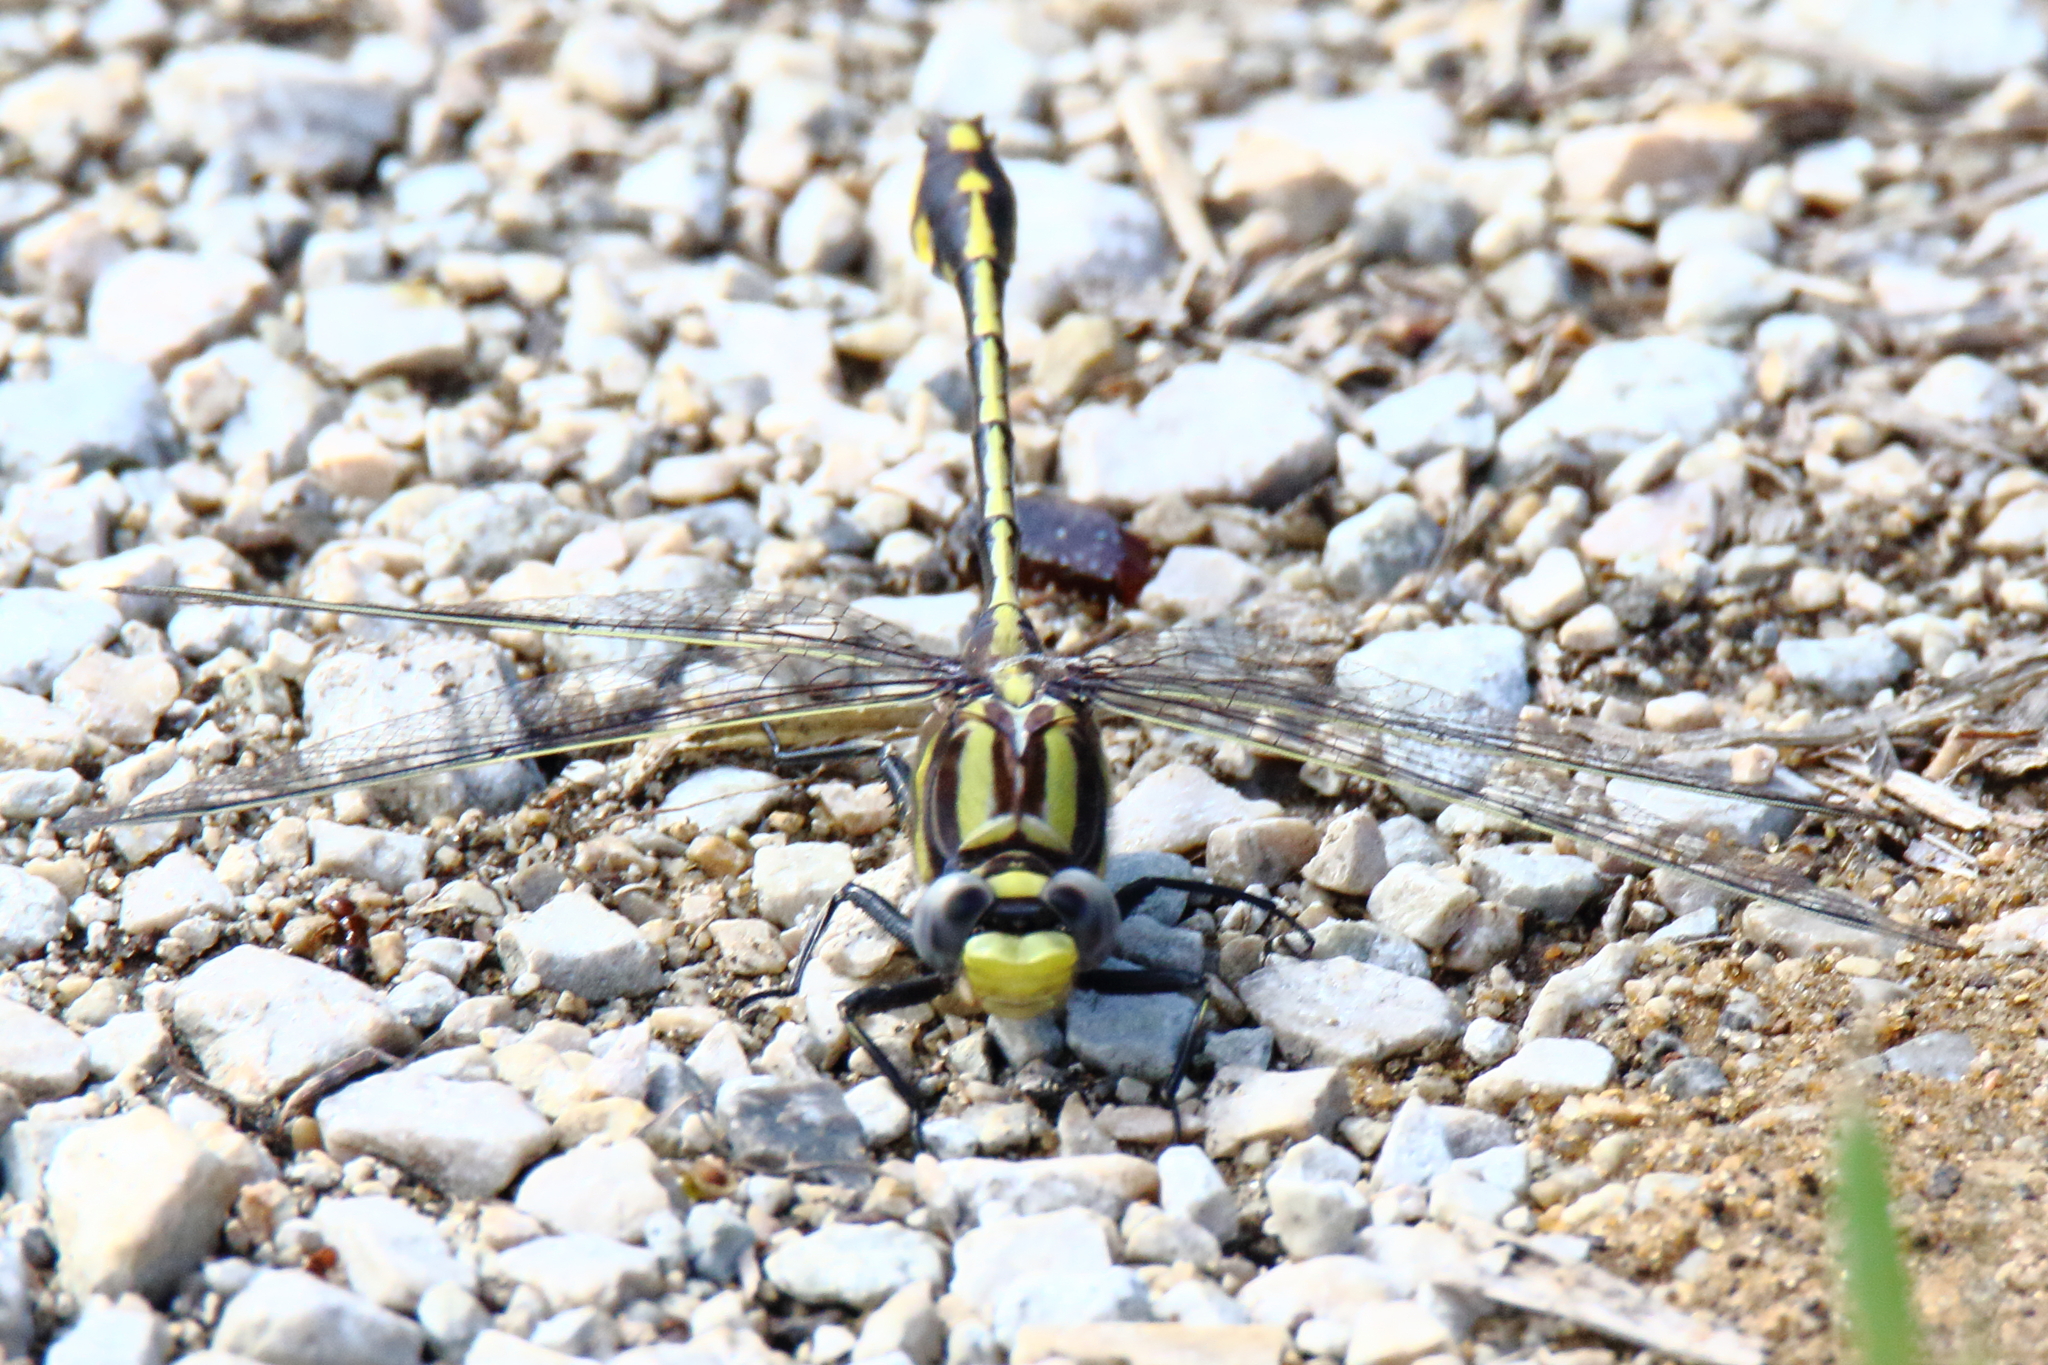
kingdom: Animalia
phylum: Arthropoda
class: Insecta
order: Odonata
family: Gomphidae
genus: Gomphurus
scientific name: Gomphurus externus
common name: Plains clubtail
